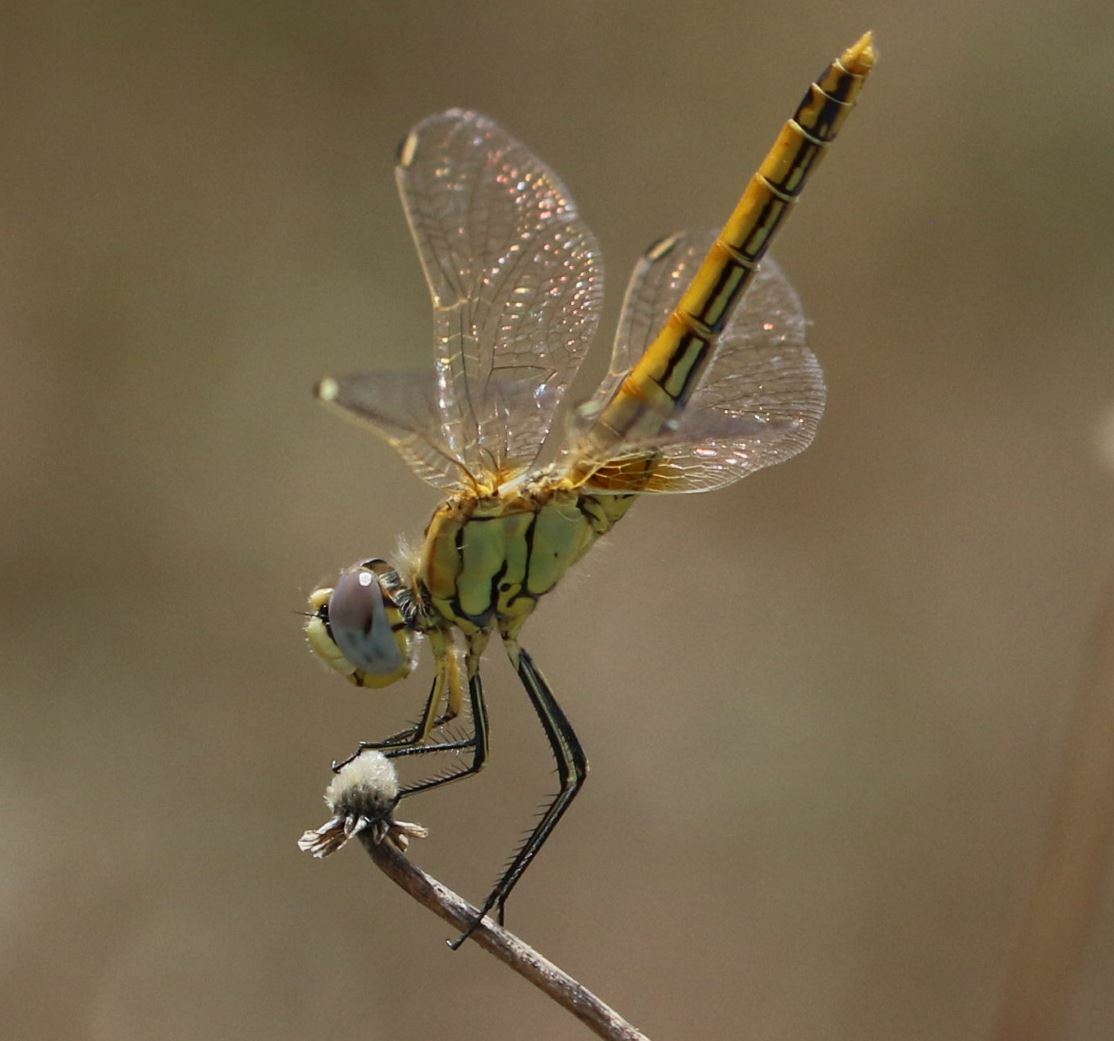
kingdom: Animalia
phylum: Arthropoda
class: Insecta
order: Odonata
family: Libellulidae
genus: Sympetrum
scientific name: Sympetrum fonscolombii
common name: Red-veined darter
